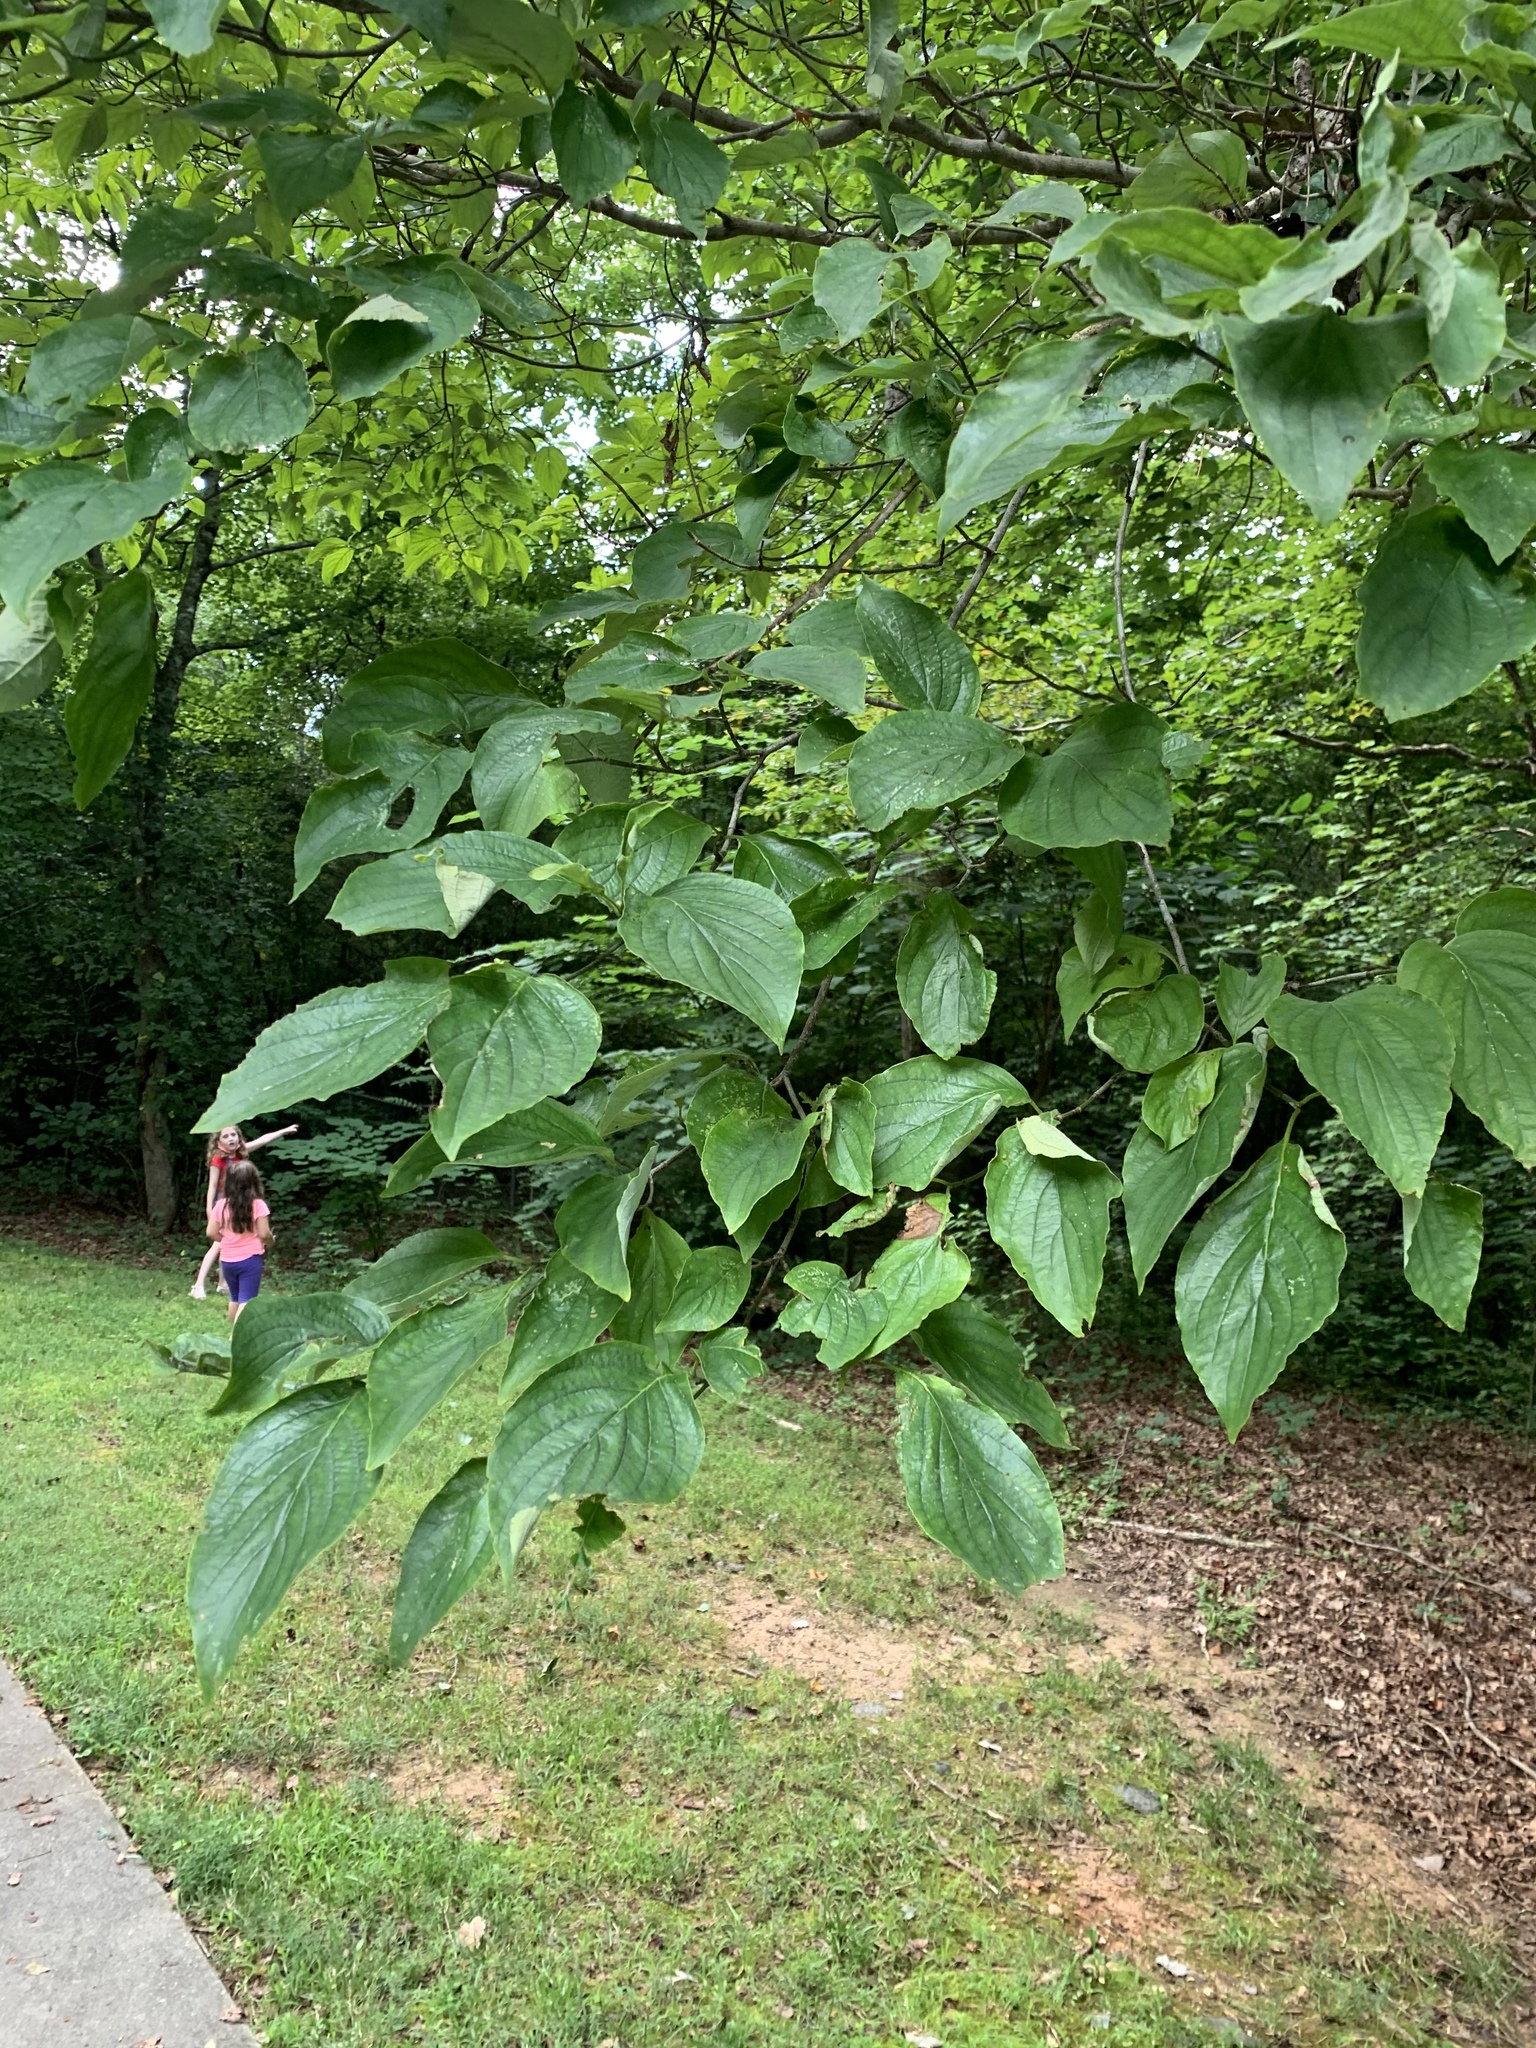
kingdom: Plantae
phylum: Tracheophyta
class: Magnoliopsida
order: Cornales
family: Cornaceae
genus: Cornus
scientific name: Cornus florida
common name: Flowering dogwood
